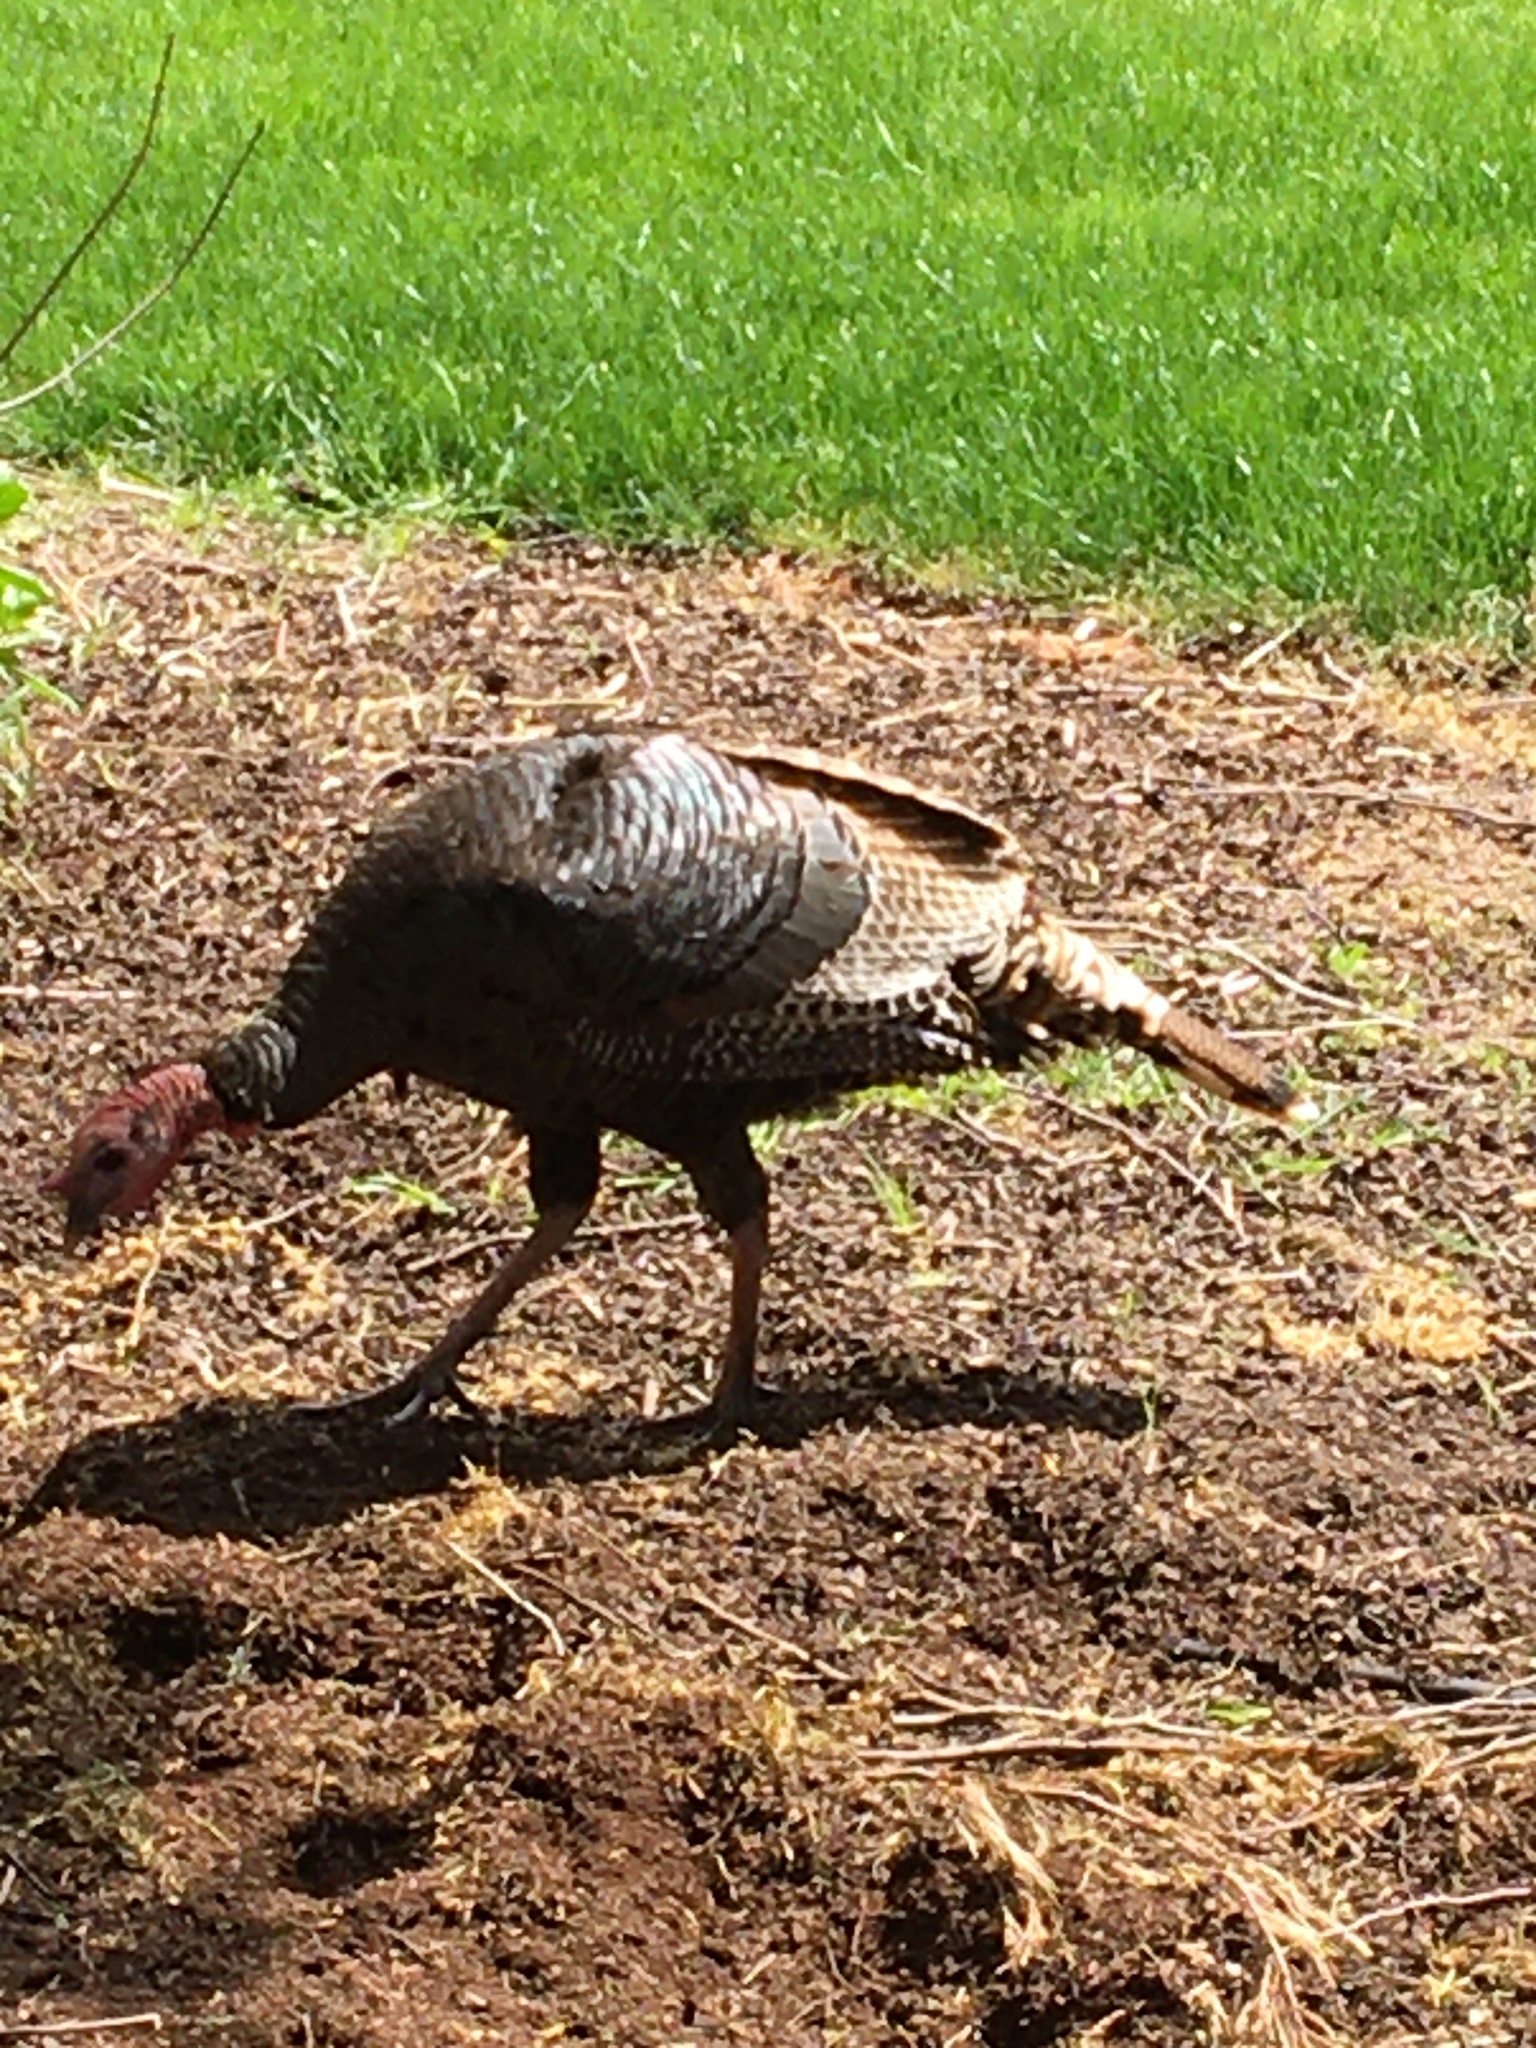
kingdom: Animalia
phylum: Chordata
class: Aves
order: Galliformes
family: Phasianidae
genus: Meleagris
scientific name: Meleagris gallopavo
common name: Wild turkey
